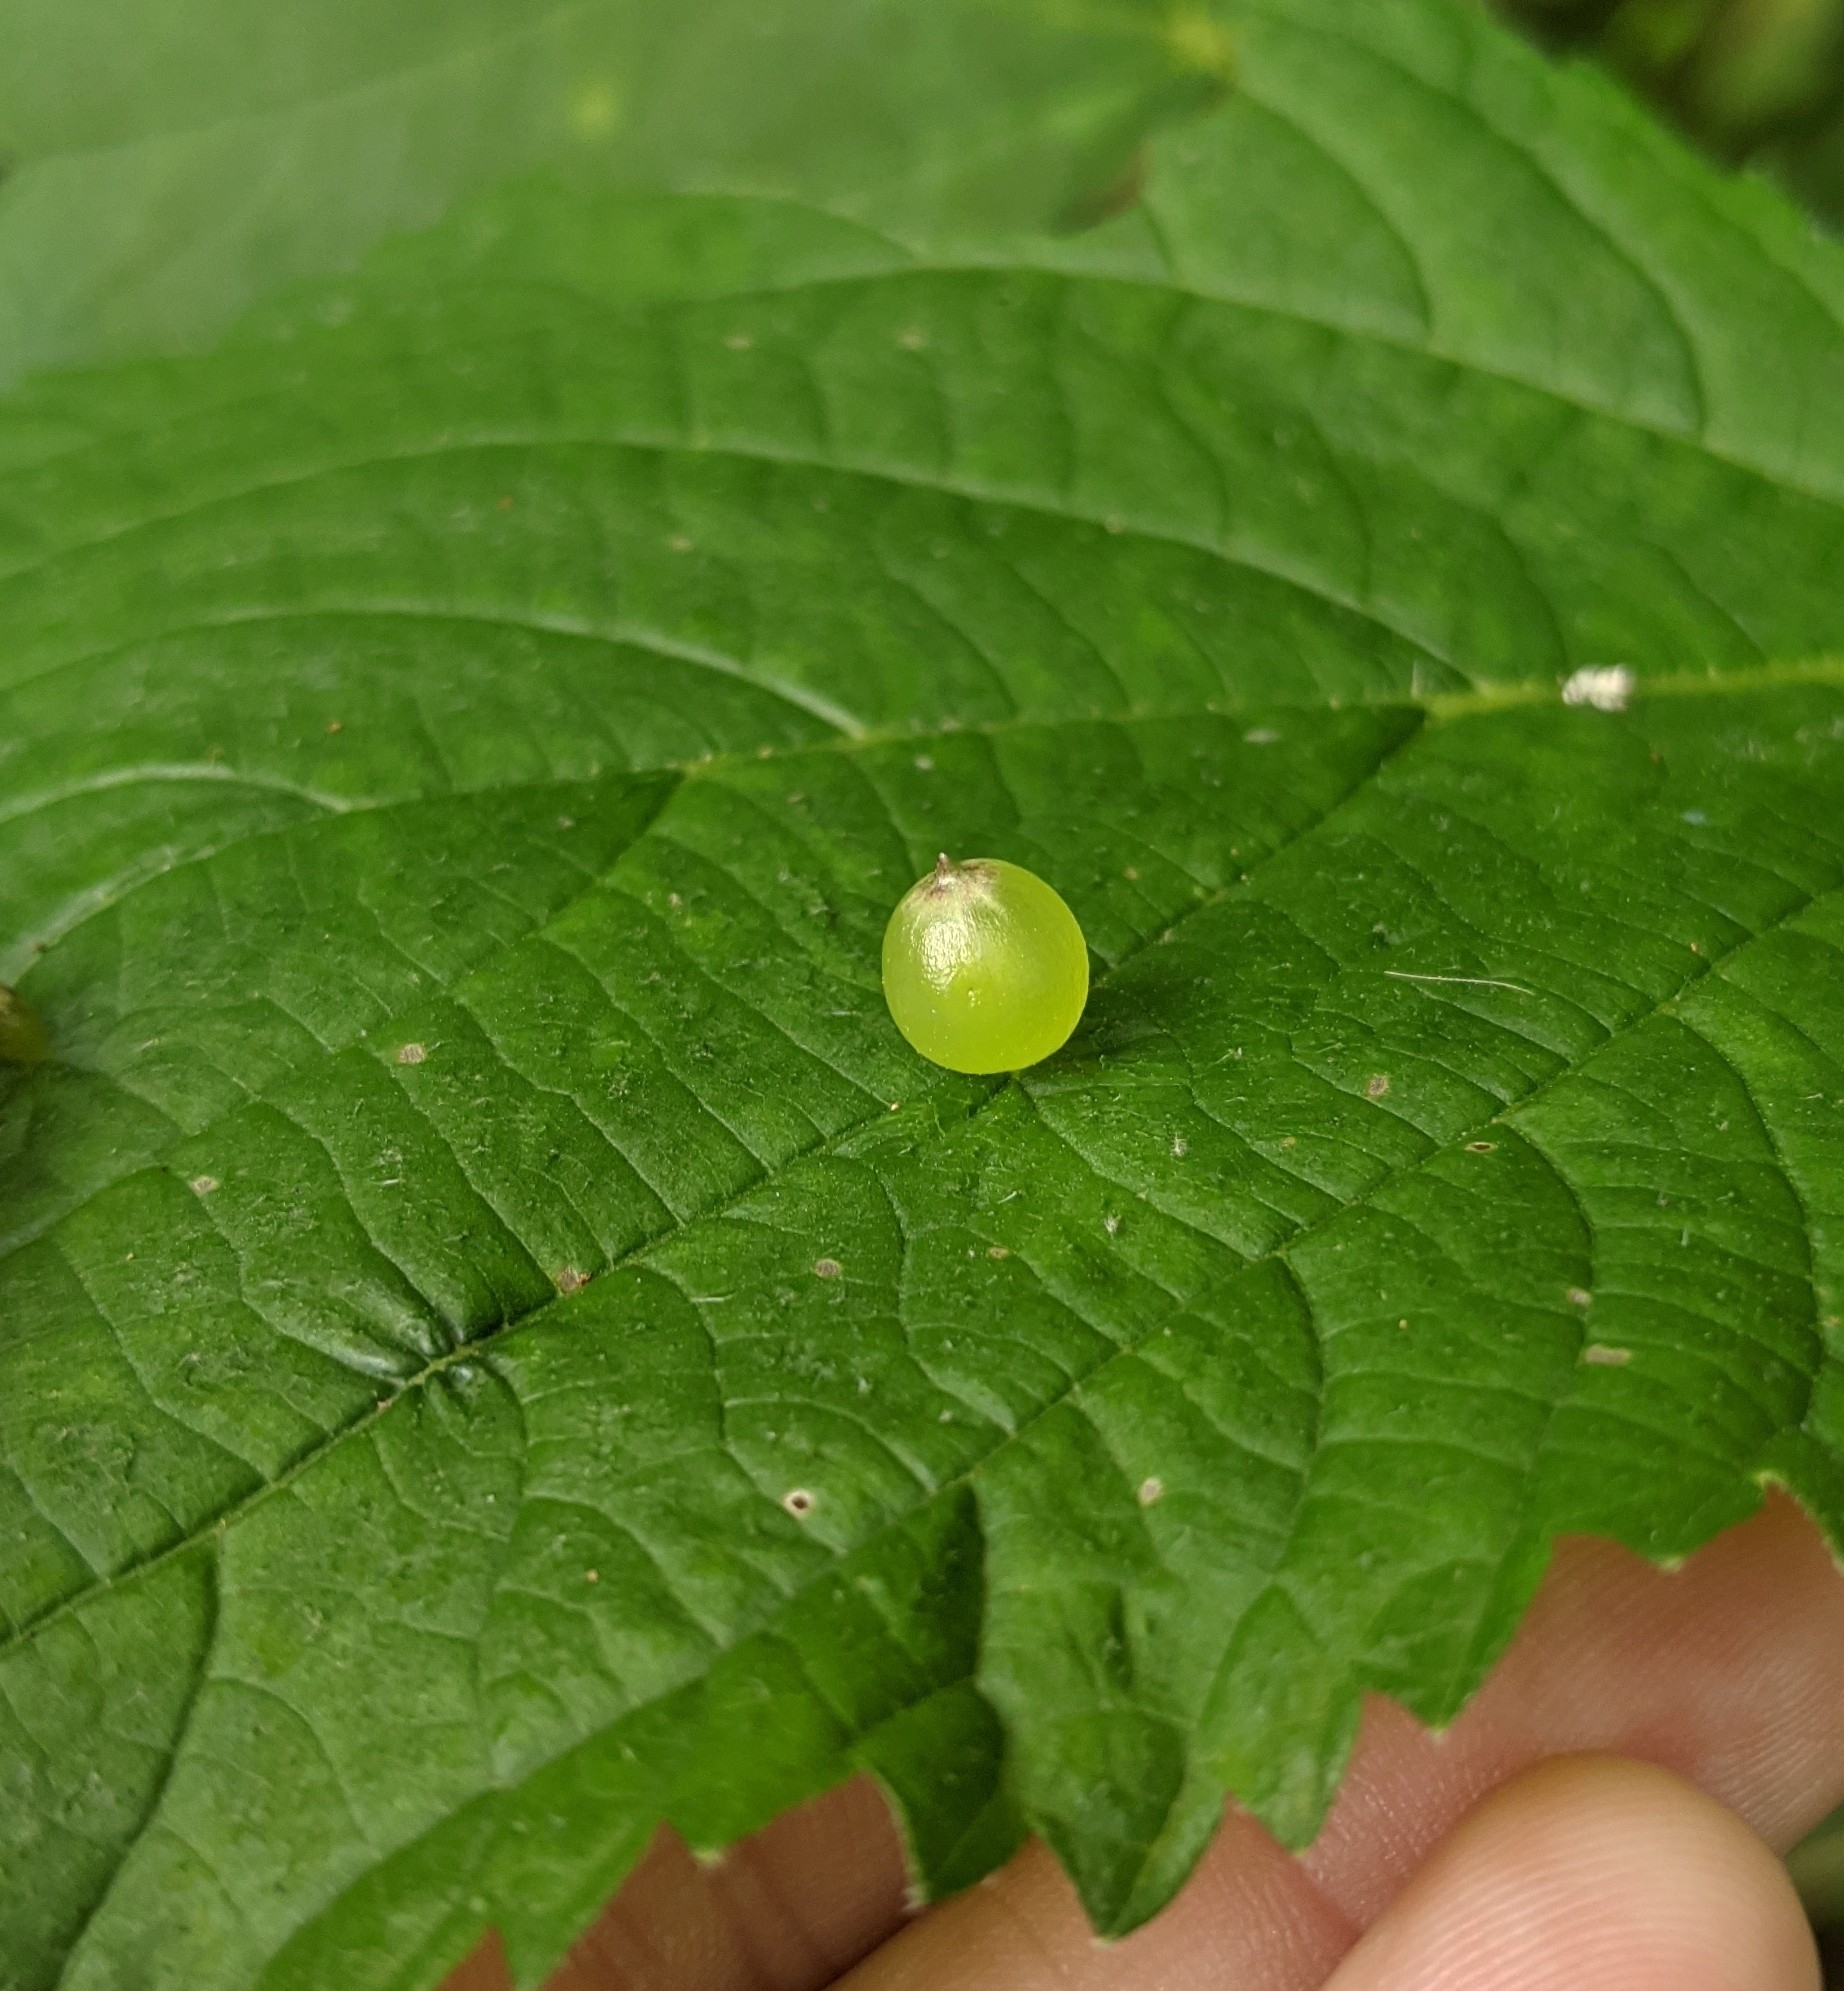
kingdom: Animalia
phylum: Arthropoda
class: Insecta
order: Diptera
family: Cecidomyiidae
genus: Dasineura
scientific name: Dasineura investita
